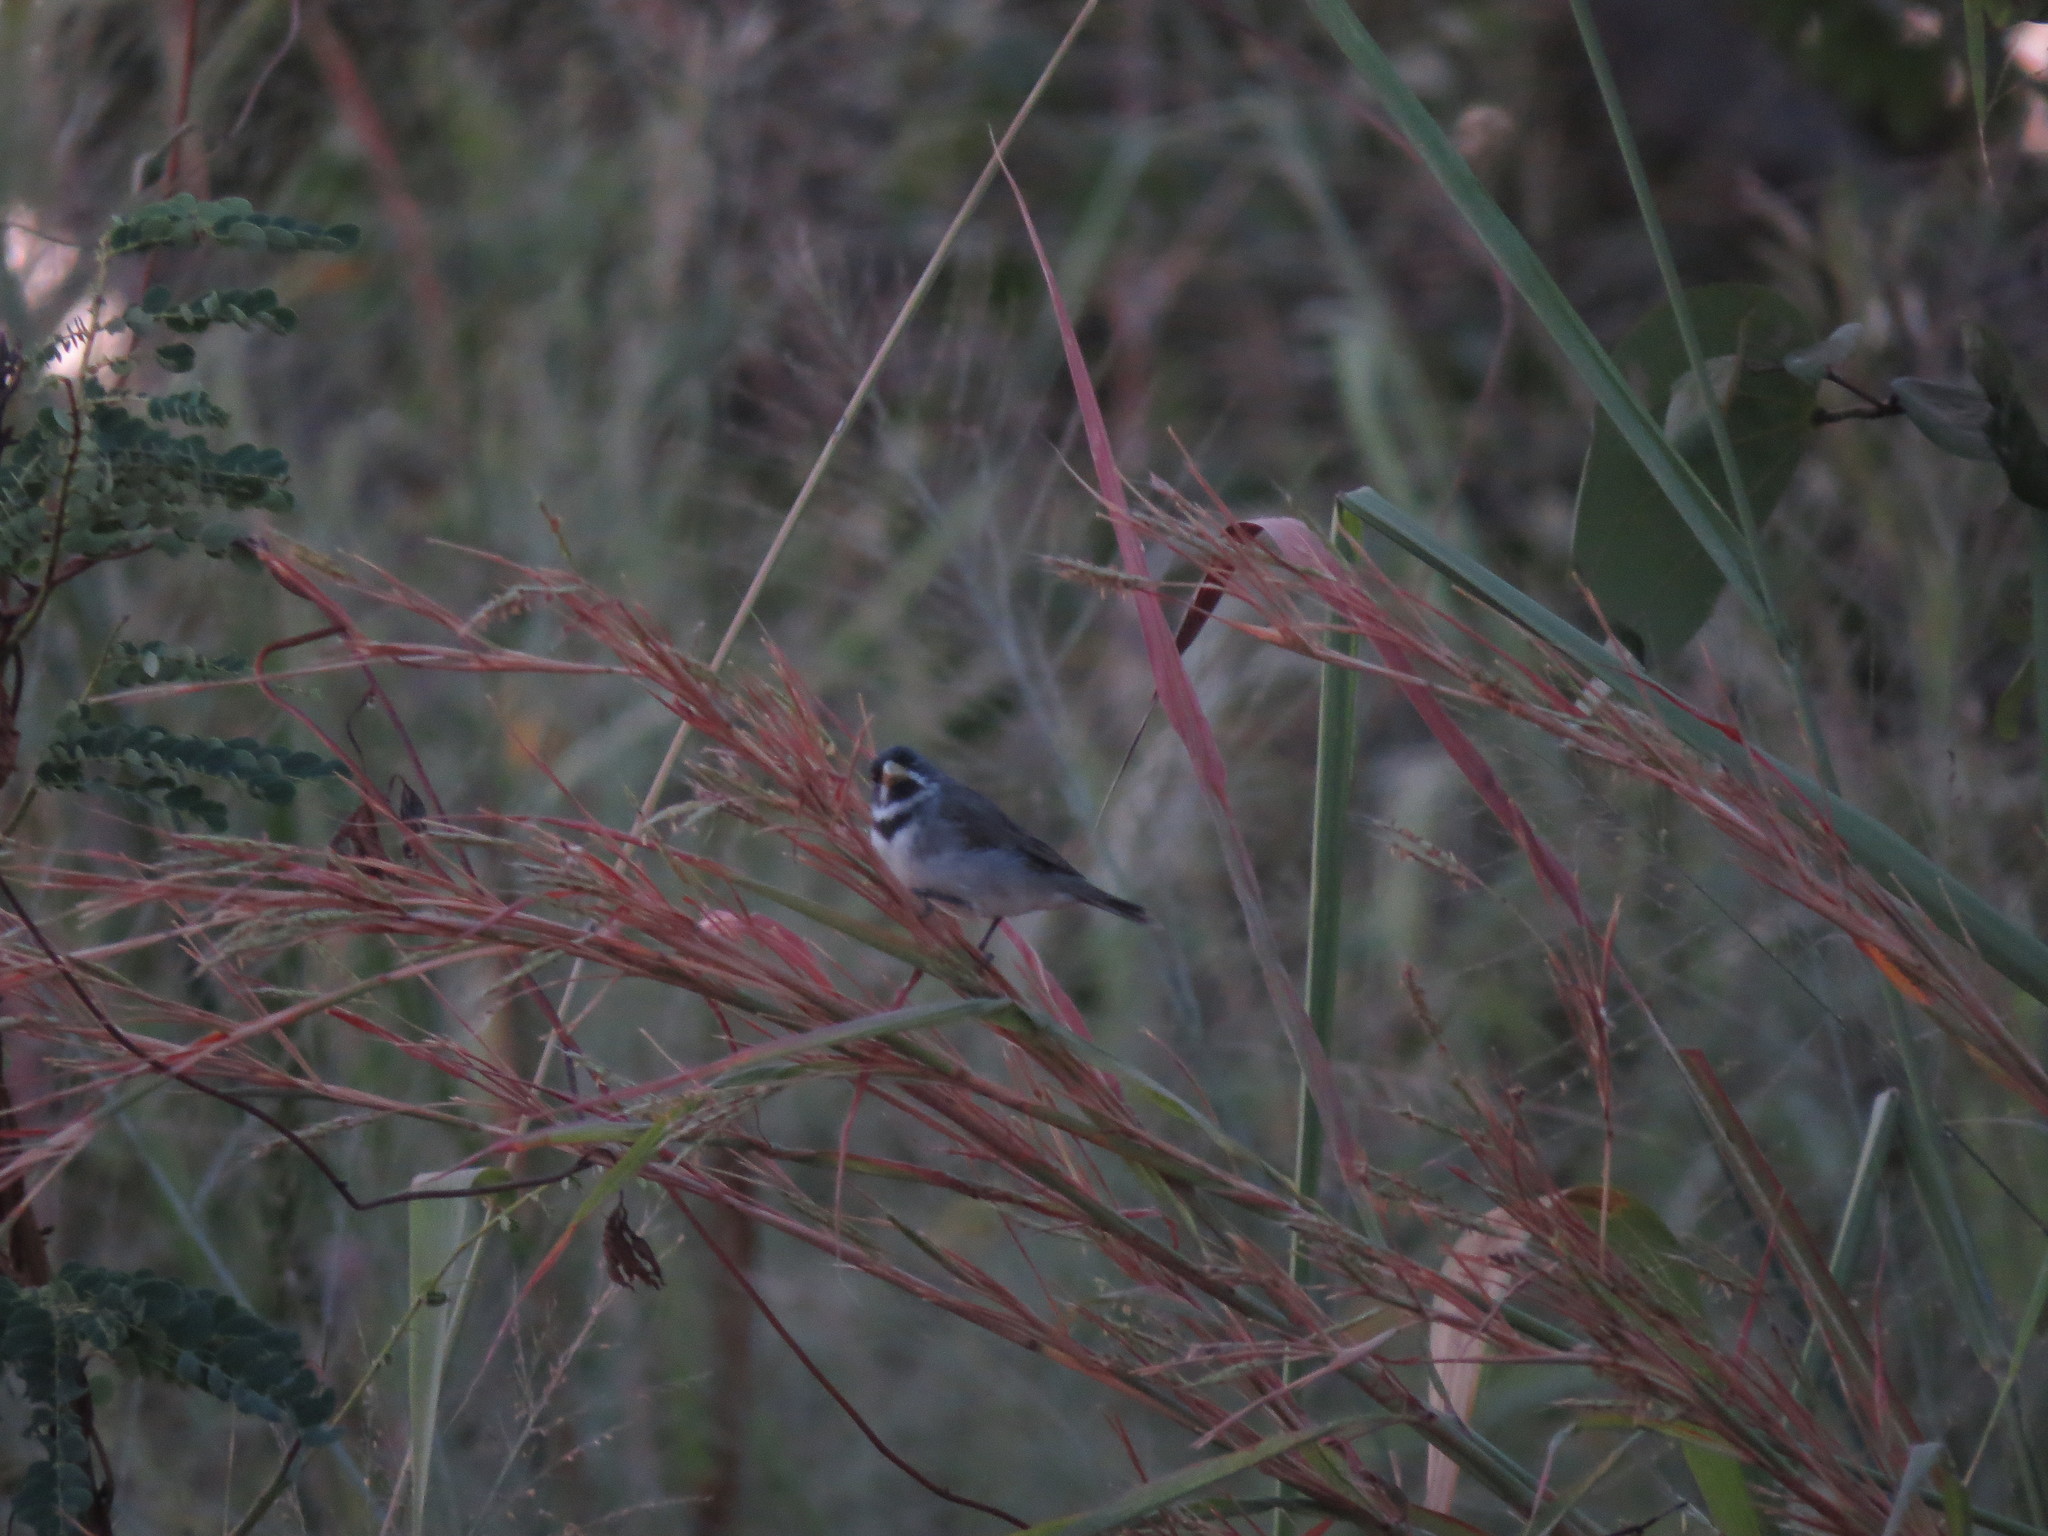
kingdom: Animalia
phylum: Chordata
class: Aves
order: Passeriformes
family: Thraupidae
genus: Sporophila
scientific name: Sporophila caerulescens
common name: Double-collared seedeater
